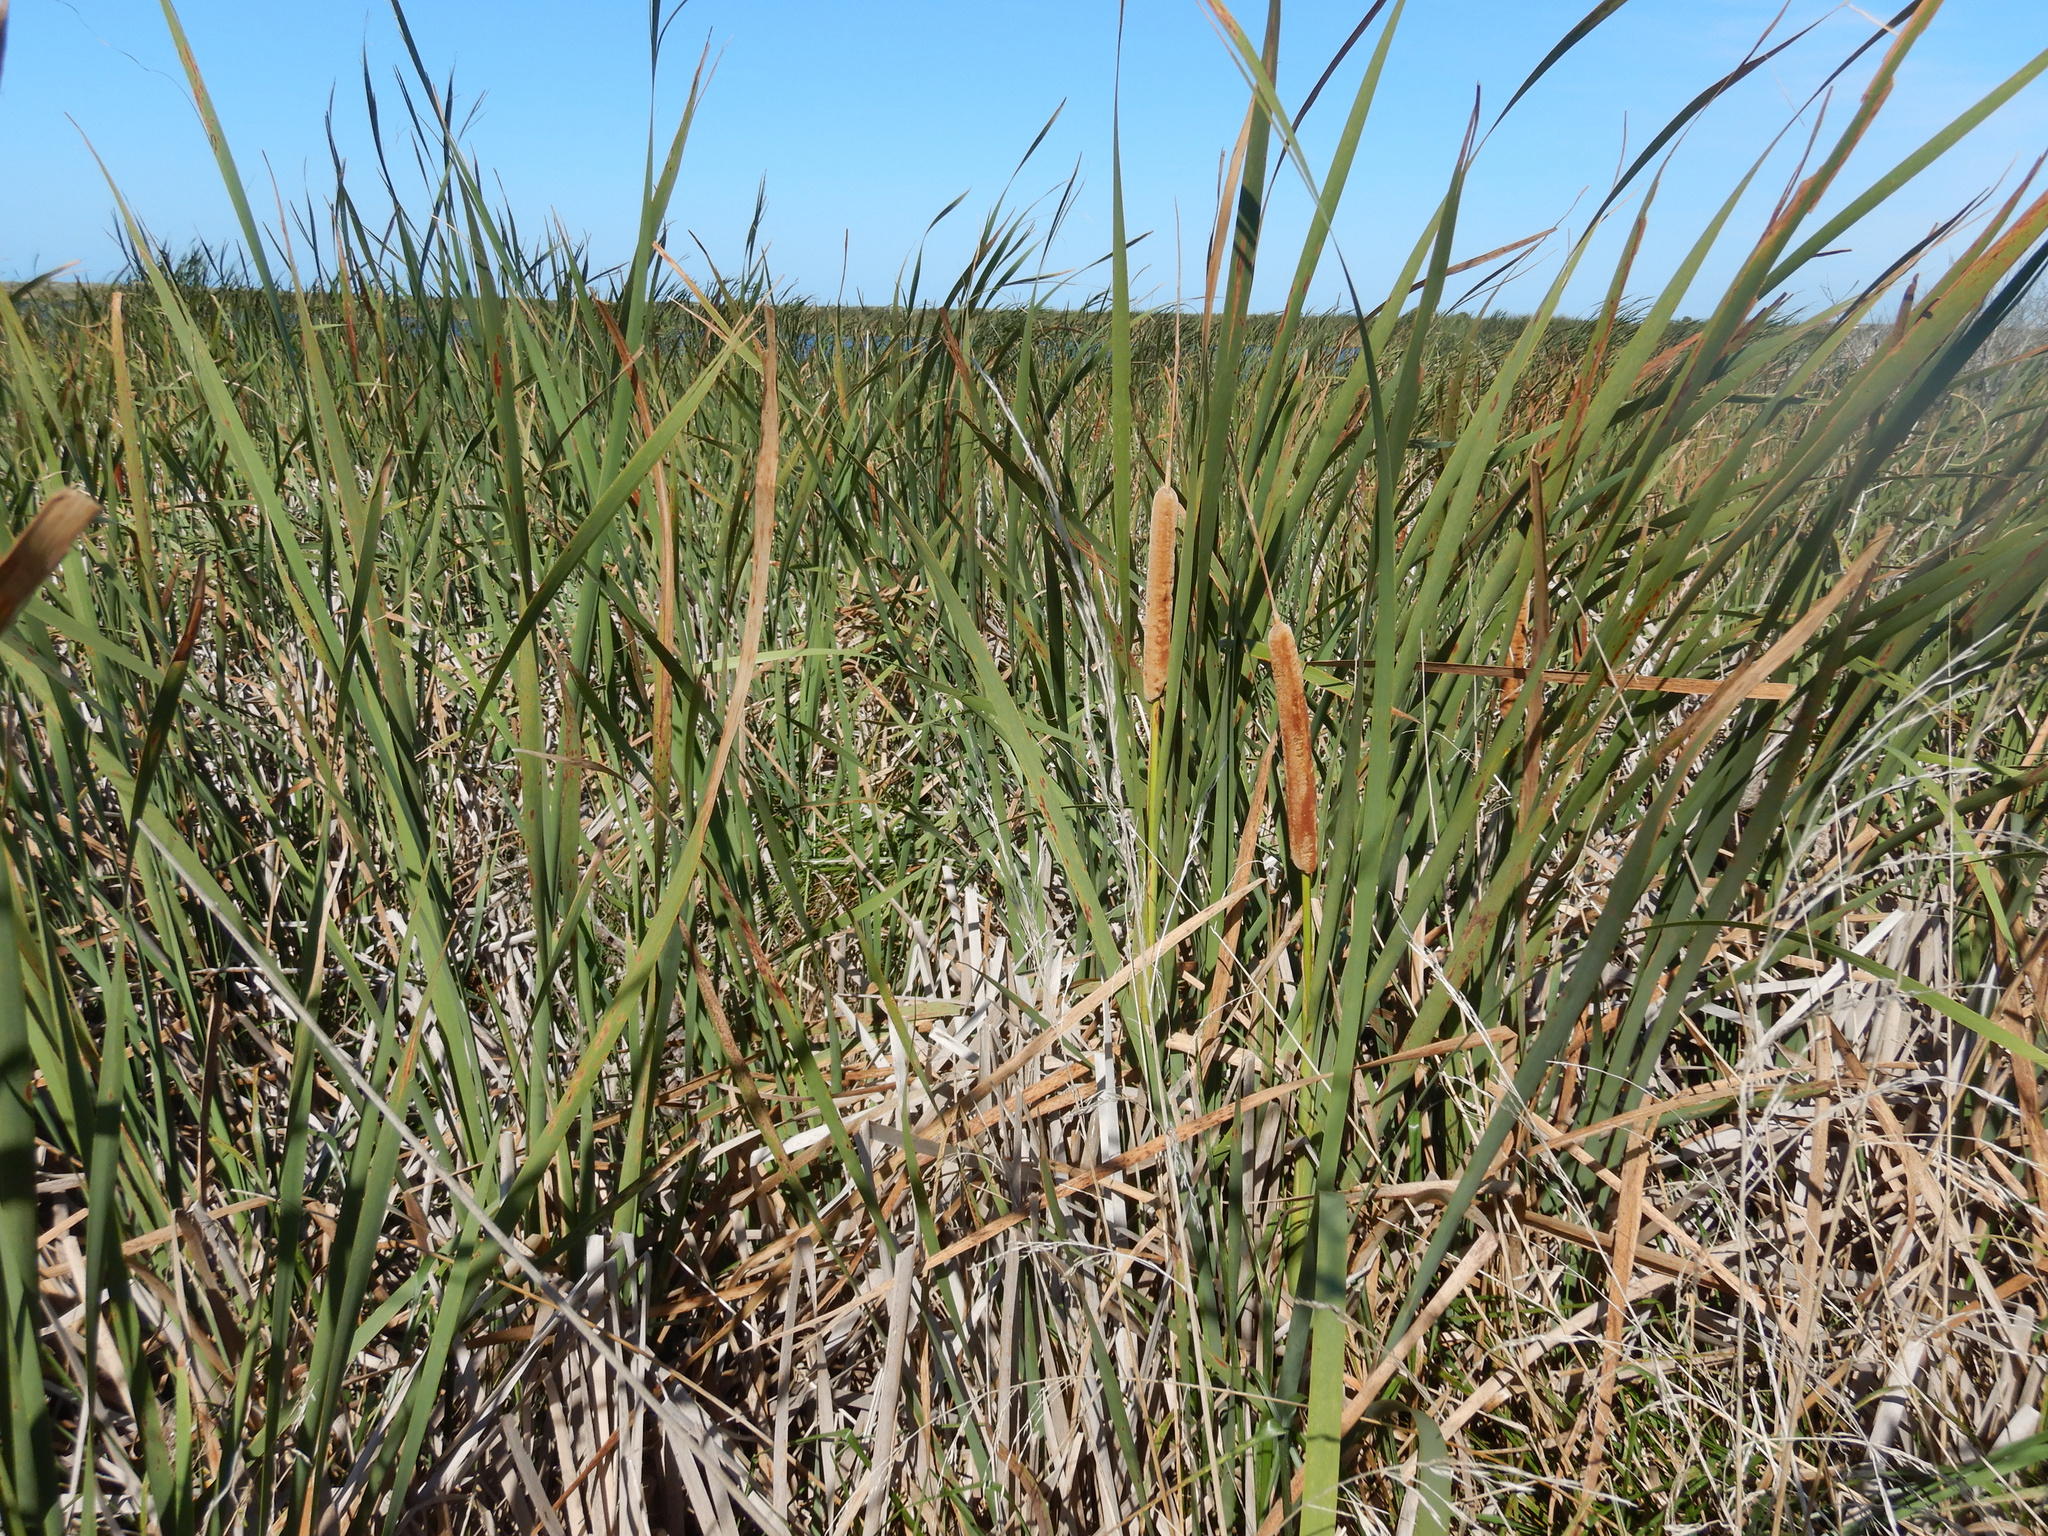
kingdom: Plantae
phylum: Tracheophyta
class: Liliopsida
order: Poales
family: Typhaceae
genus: Typha
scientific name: Typha orientalis
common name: Bullrush
